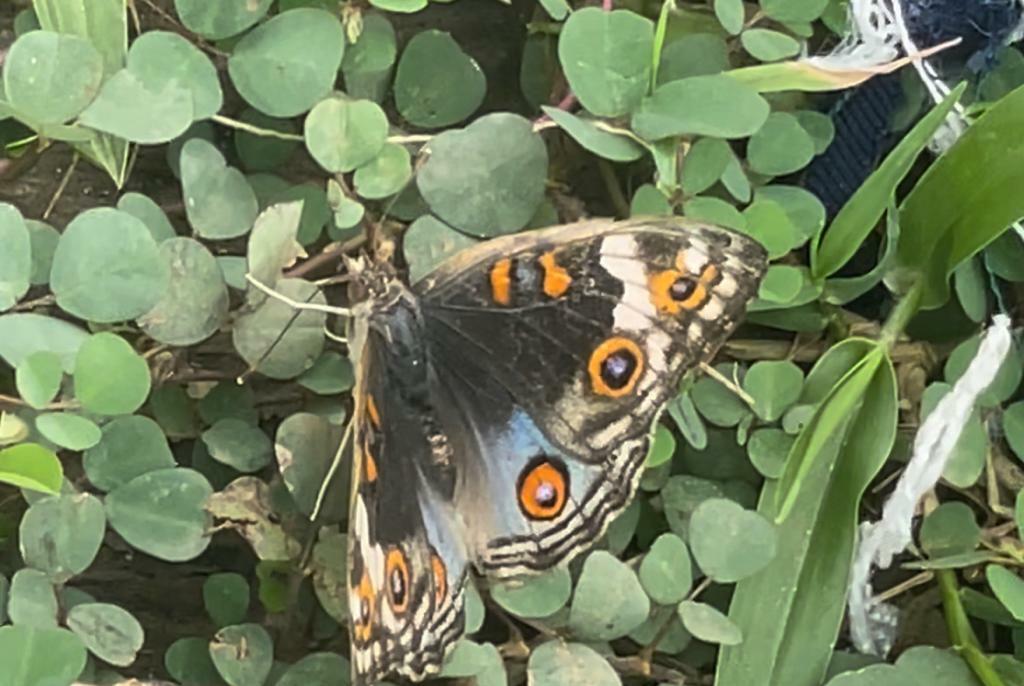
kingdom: Animalia
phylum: Arthropoda
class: Insecta
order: Lepidoptera
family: Nymphalidae
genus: Junonia
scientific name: Junonia orithya
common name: Blue pansy
